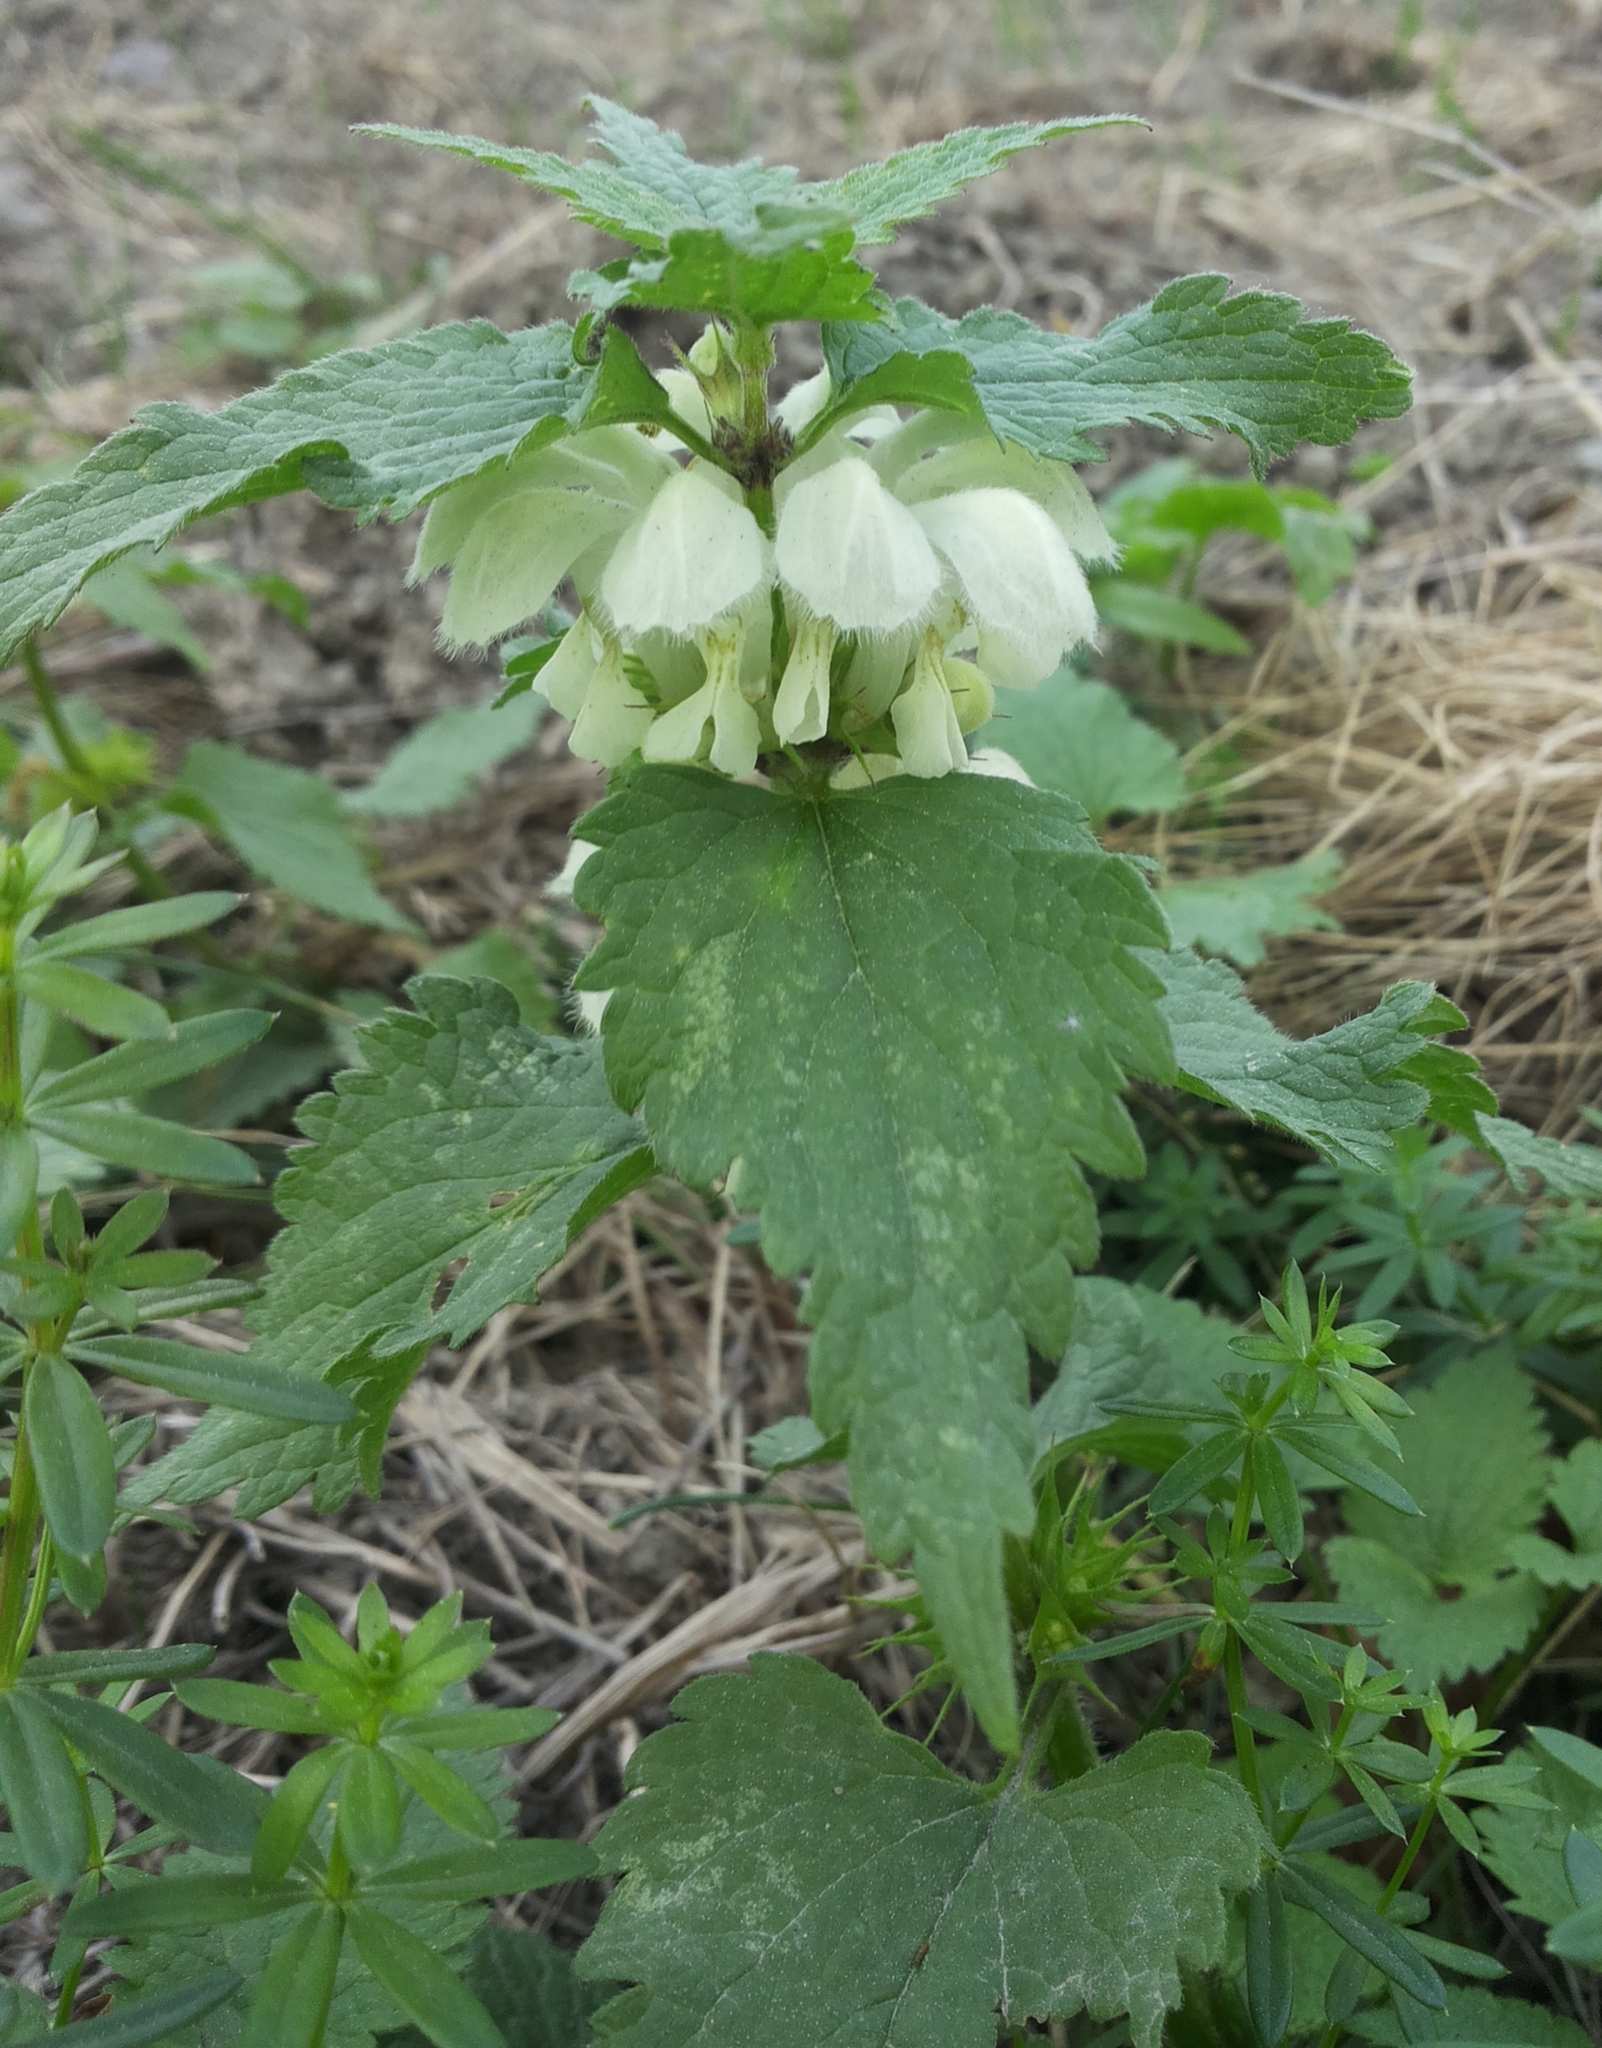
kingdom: Plantae
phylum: Tracheophyta
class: Magnoliopsida
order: Lamiales
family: Lamiaceae
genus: Lamium
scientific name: Lamium album
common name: White dead-nettle
